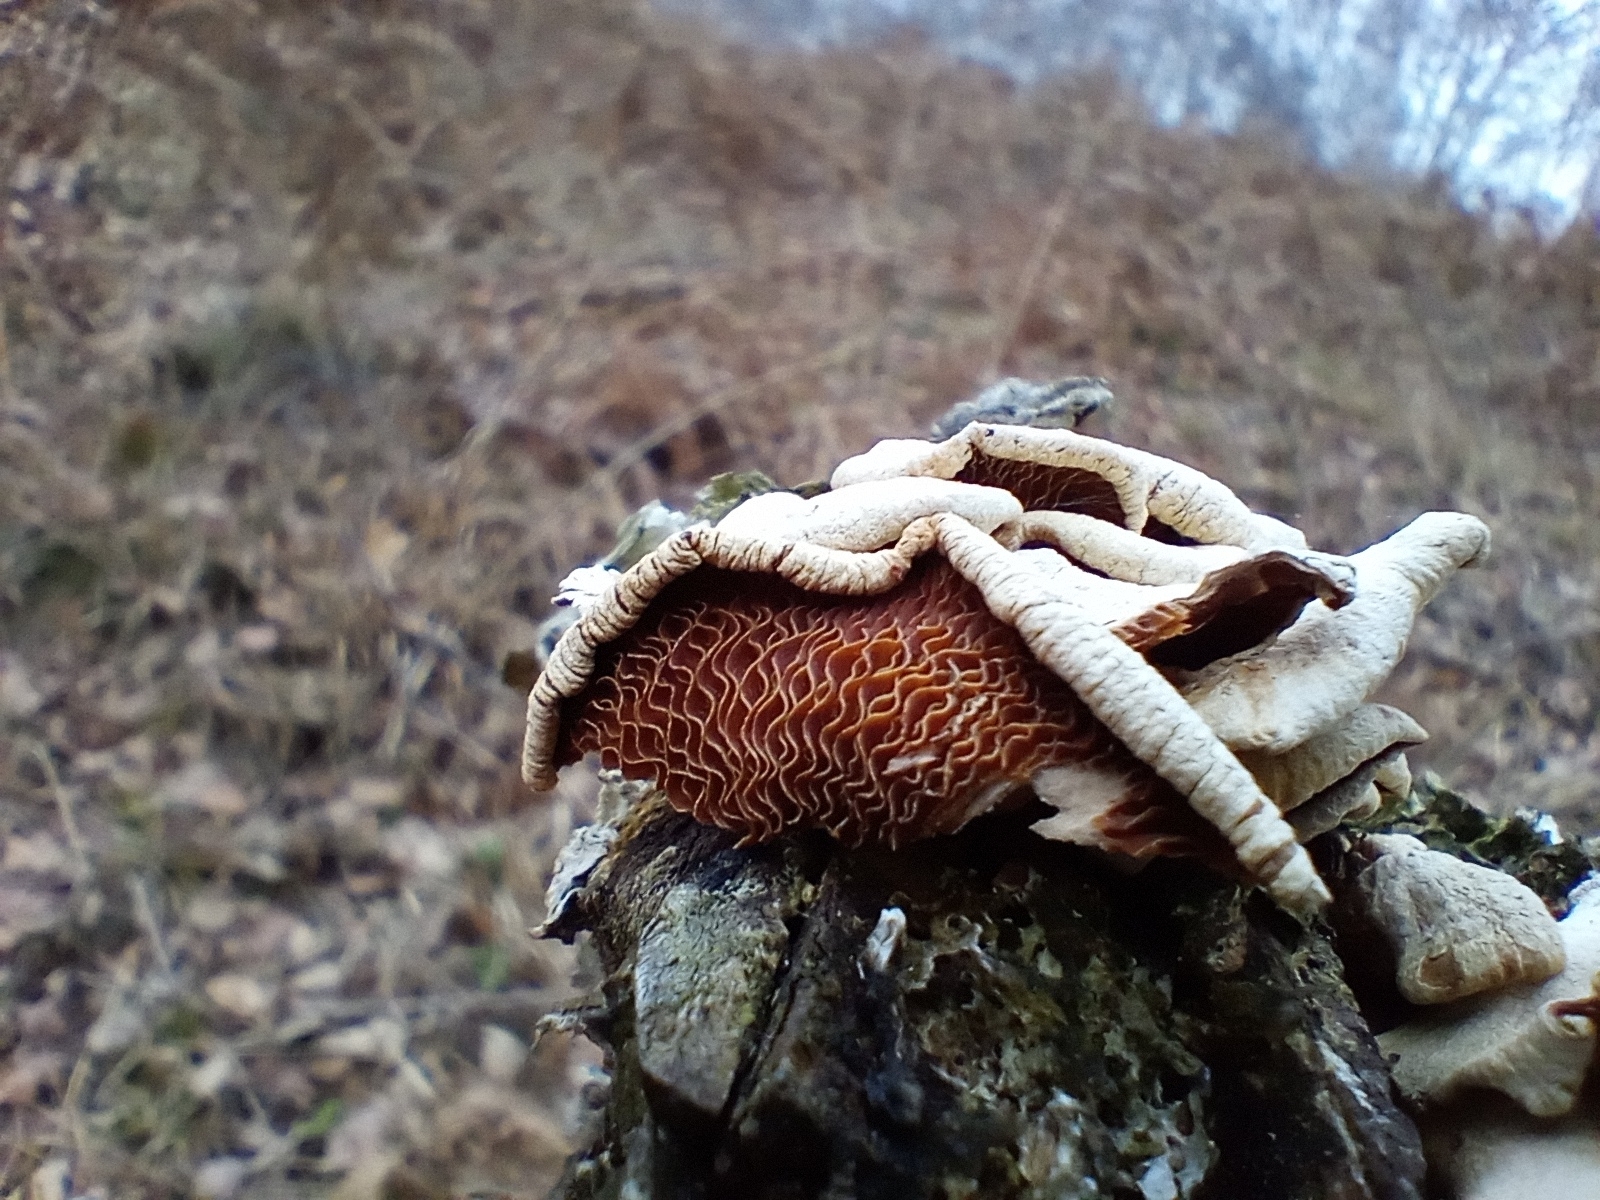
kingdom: Fungi
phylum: Basidiomycota
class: Agaricomycetes
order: Agaricales
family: Mycenaceae
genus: Panellus
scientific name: Panellus stipticus
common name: Bitter oysterling
